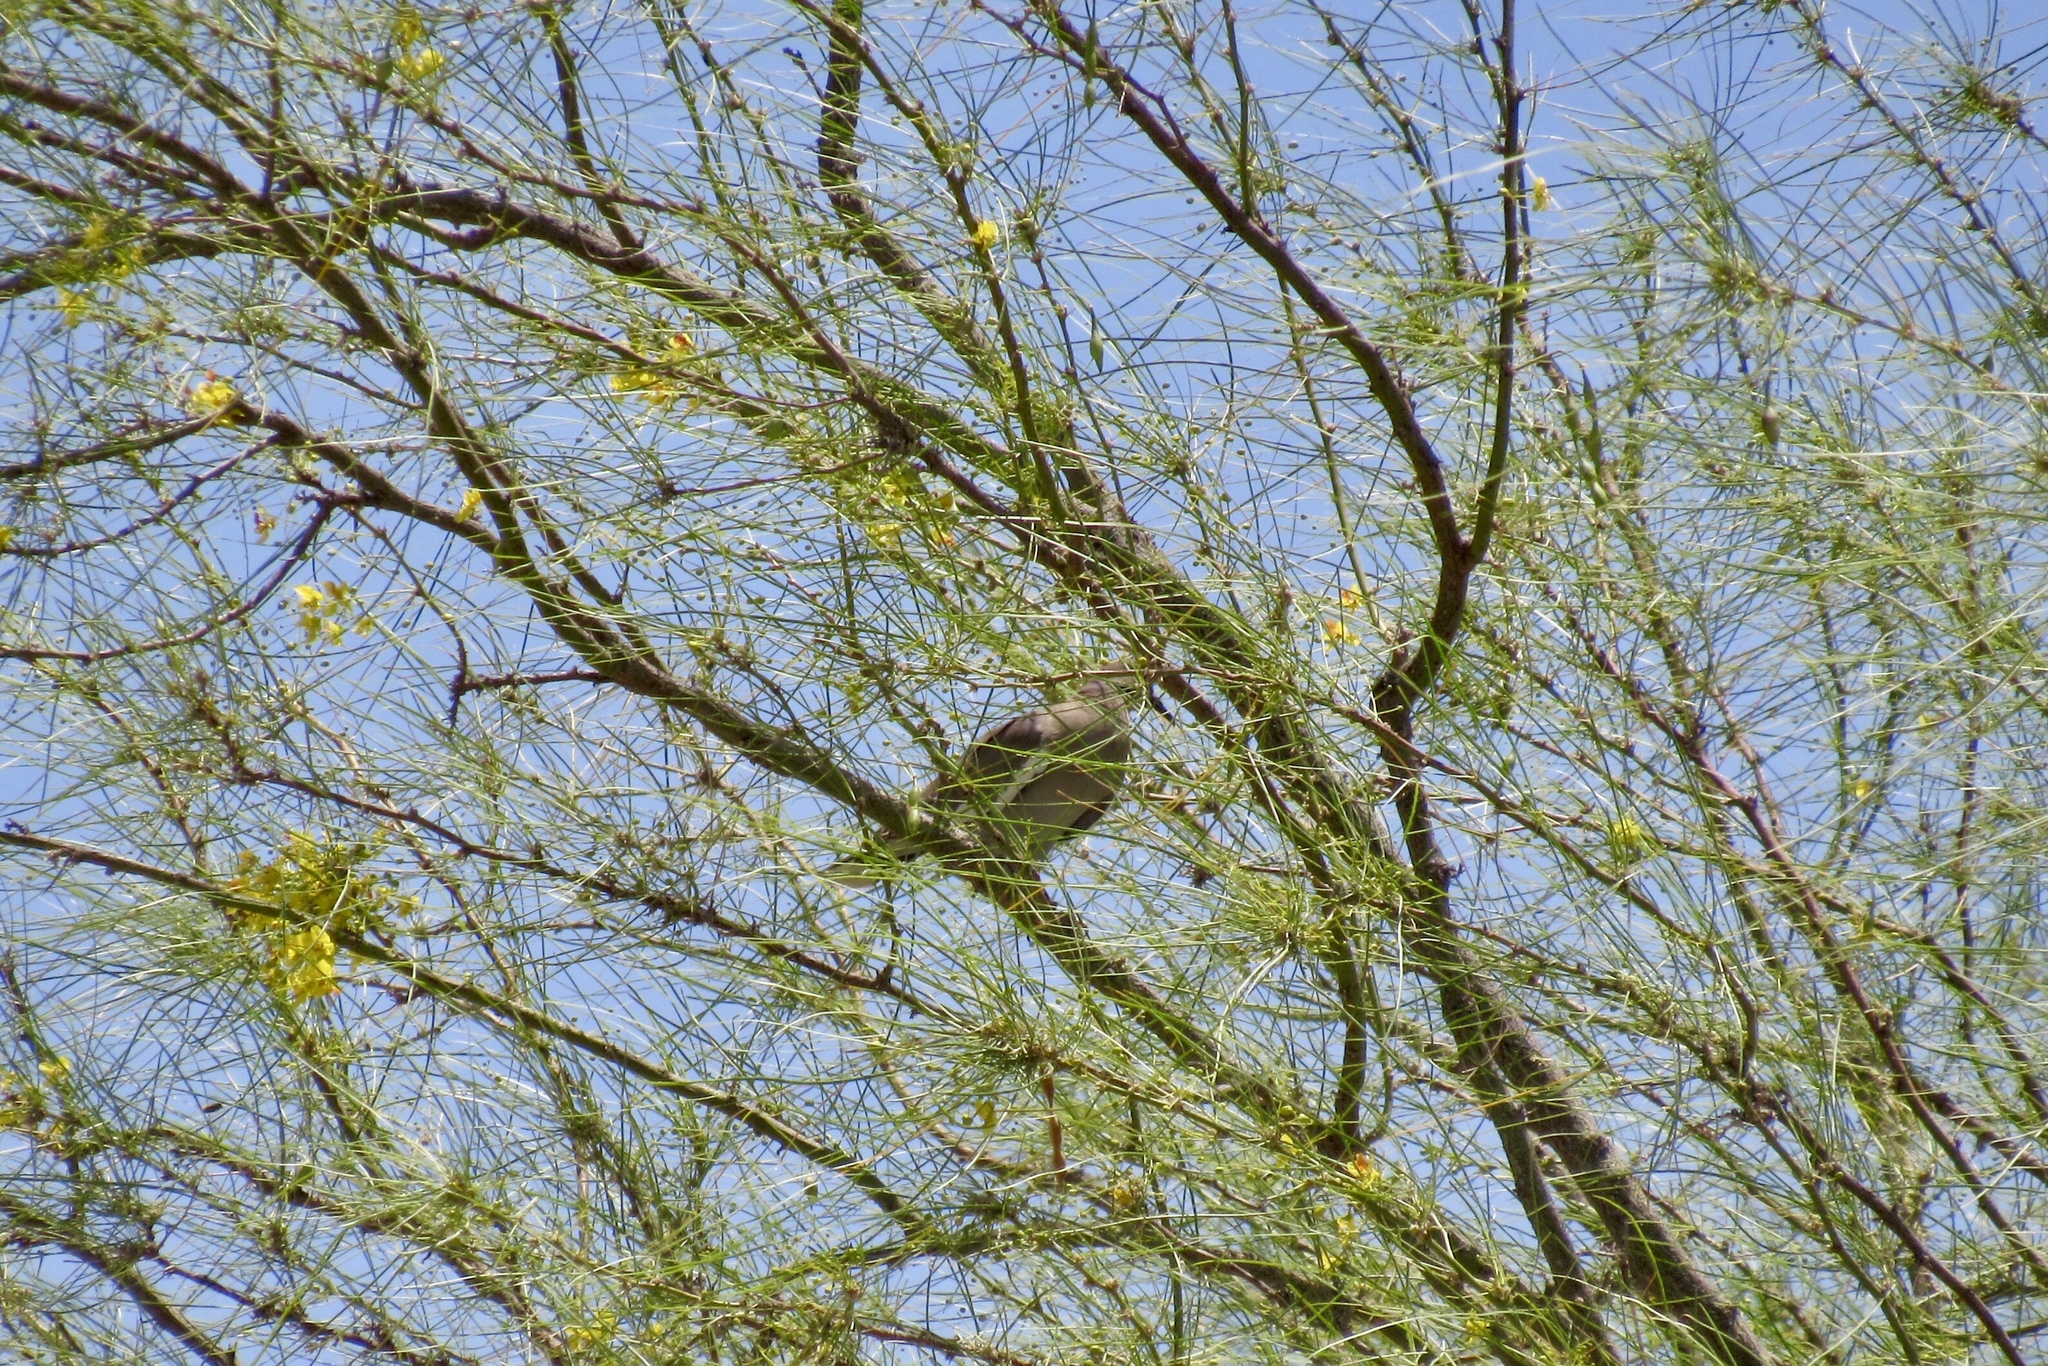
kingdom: Animalia
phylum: Chordata
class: Aves
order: Columbiformes
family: Columbidae
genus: Zenaida
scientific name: Zenaida asiatica
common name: White-winged dove
